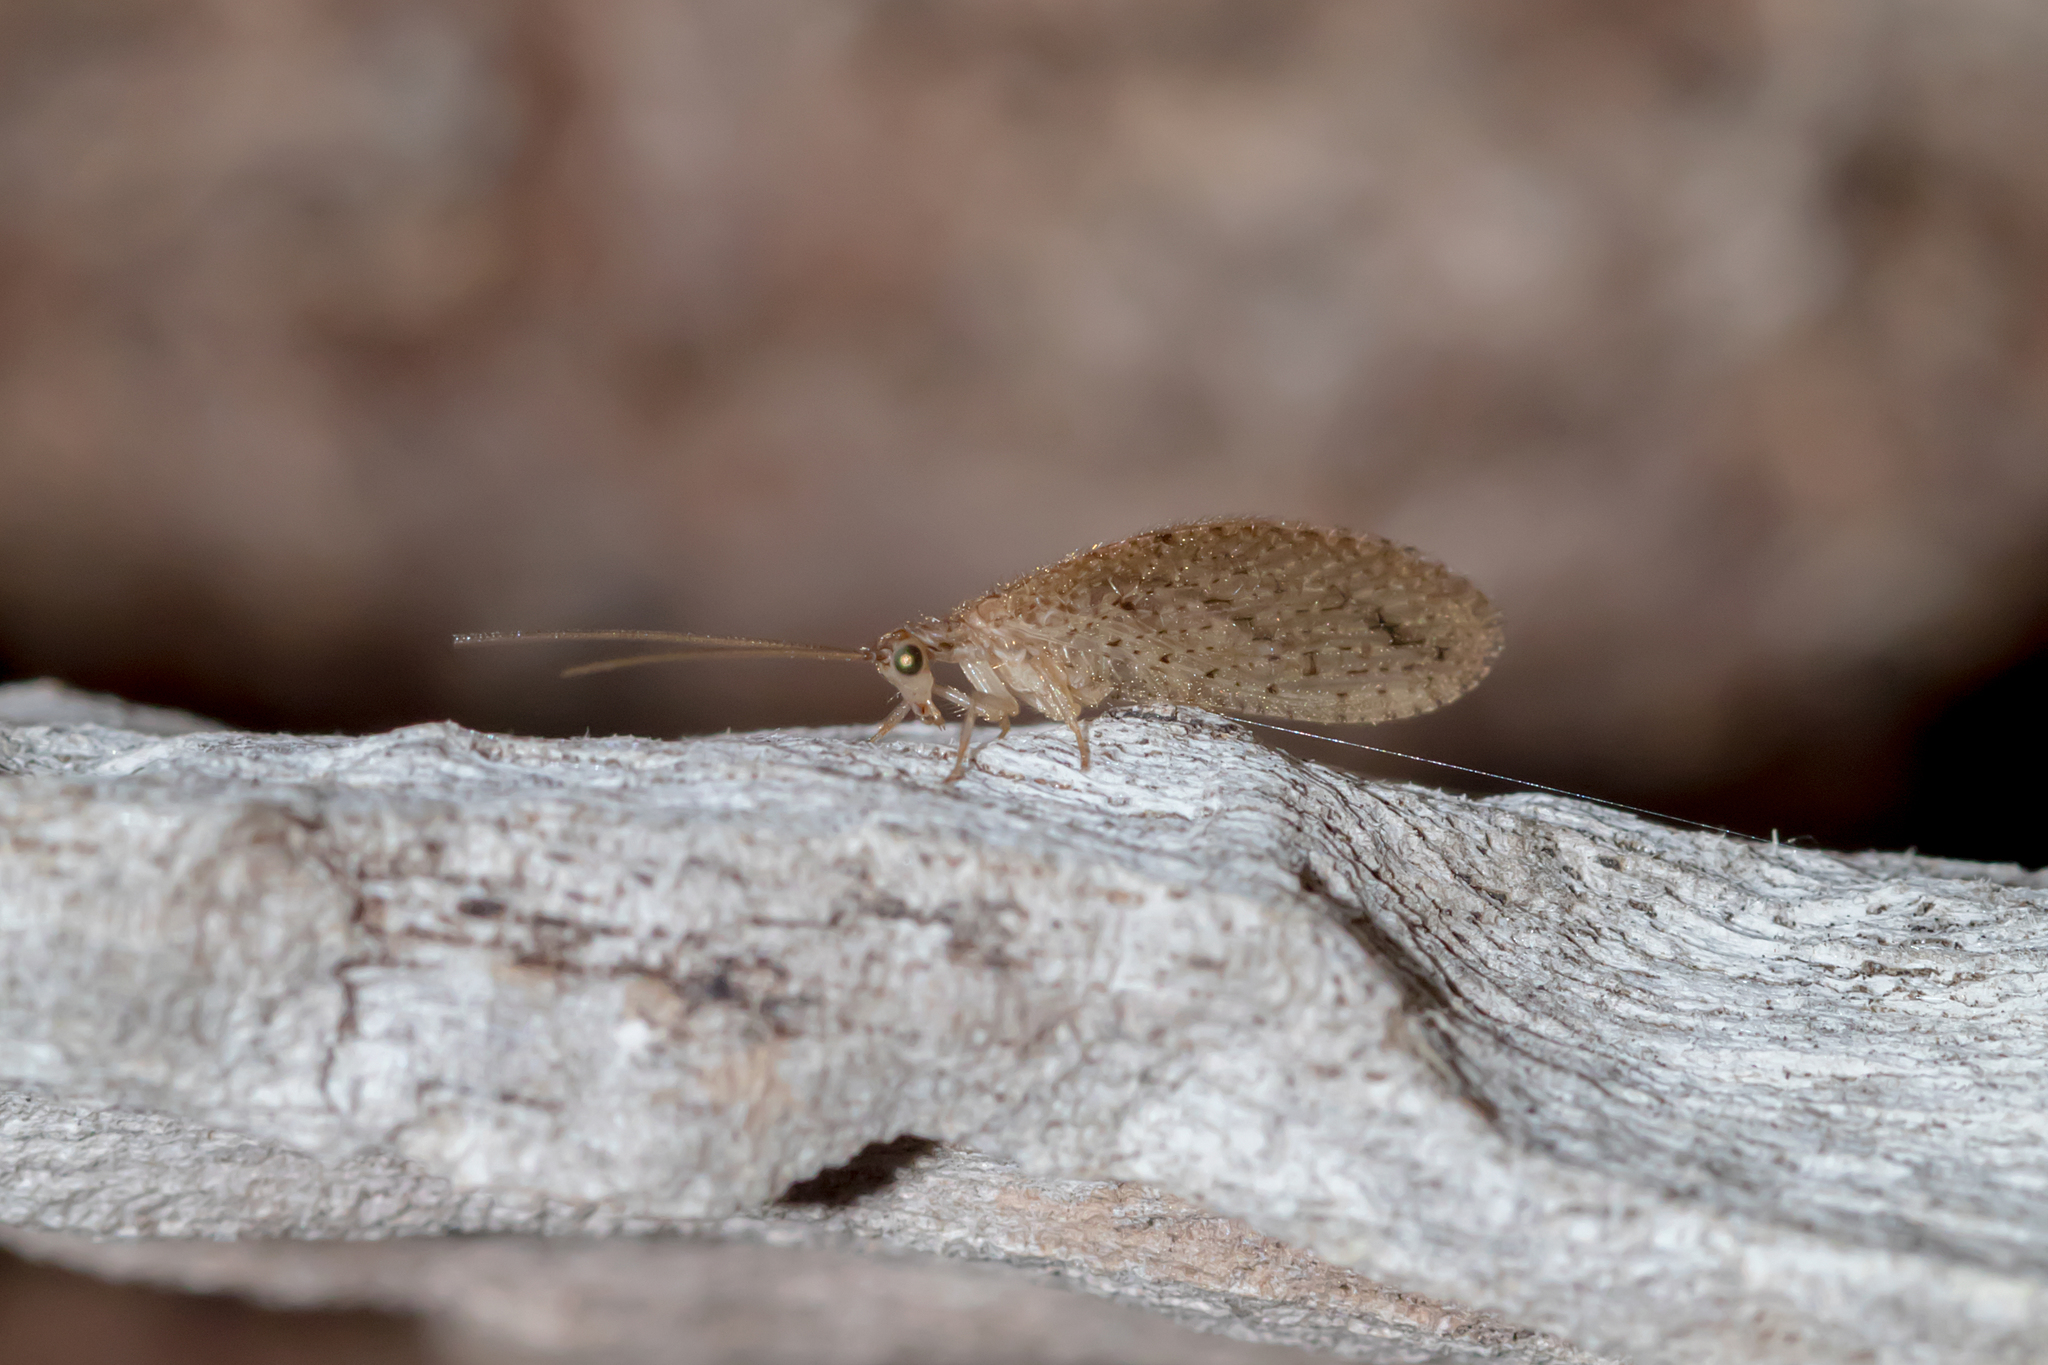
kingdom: Animalia
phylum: Arthropoda
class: Insecta
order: Neuroptera
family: Hemerobiidae
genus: Micromus
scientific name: Micromus tasmaniae
